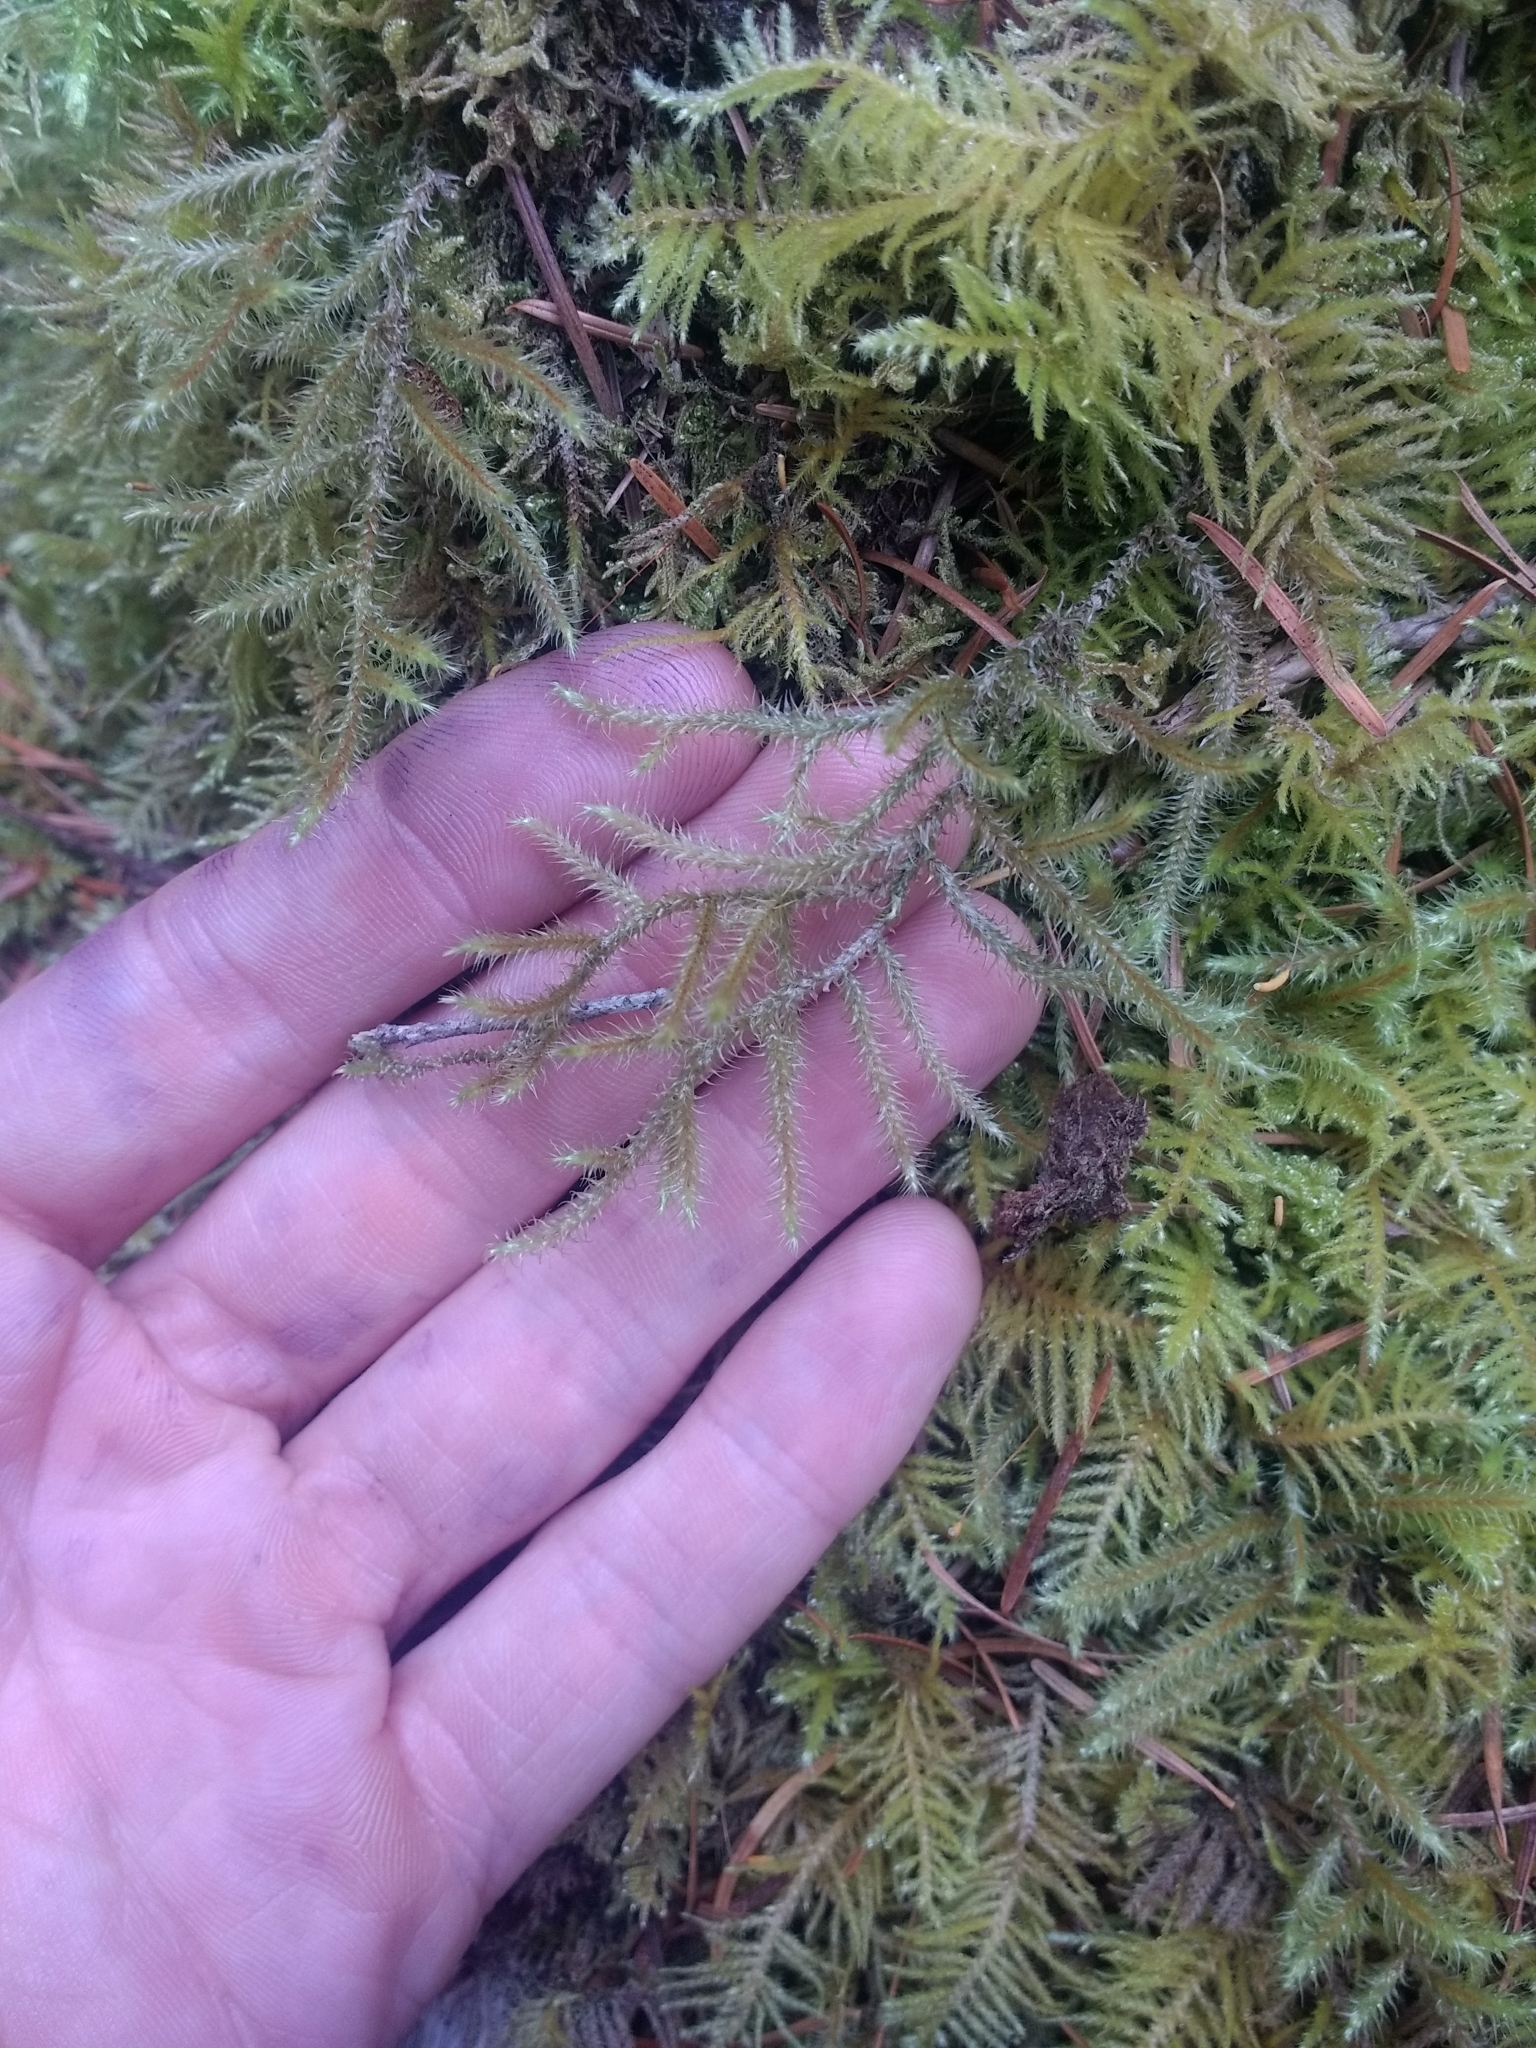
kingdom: Plantae
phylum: Bryophyta
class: Bryopsida
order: Hypnales
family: Hylocomiaceae
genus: Rhytidiadelphus
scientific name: Rhytidiadelphus loreus
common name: Lanky moss
